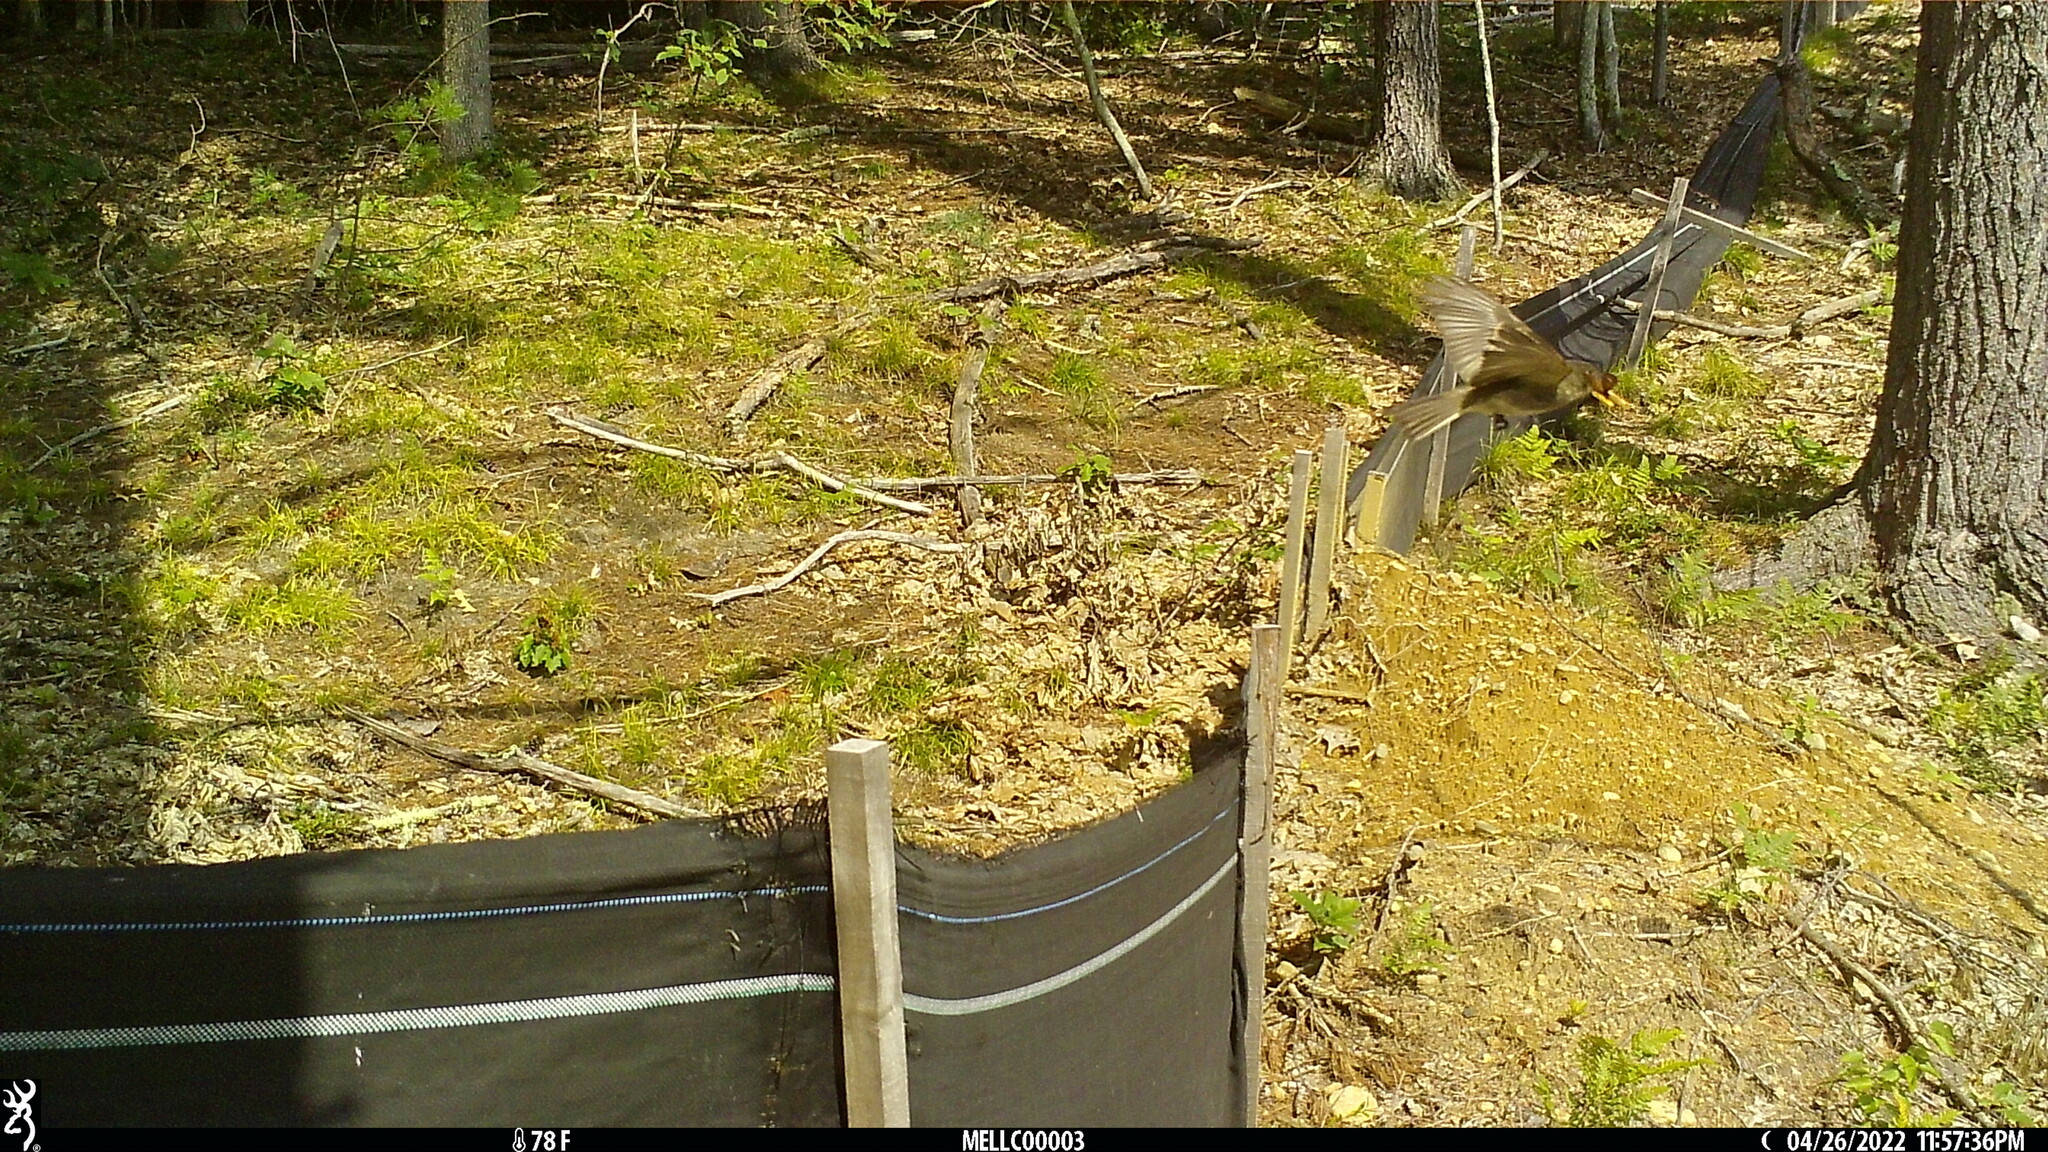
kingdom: Animalia
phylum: Chordata
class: Aves
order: Passeriformes
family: Tyrannidae
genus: Sayornis
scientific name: Sayornis phoebe
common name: Eastern phoebe
